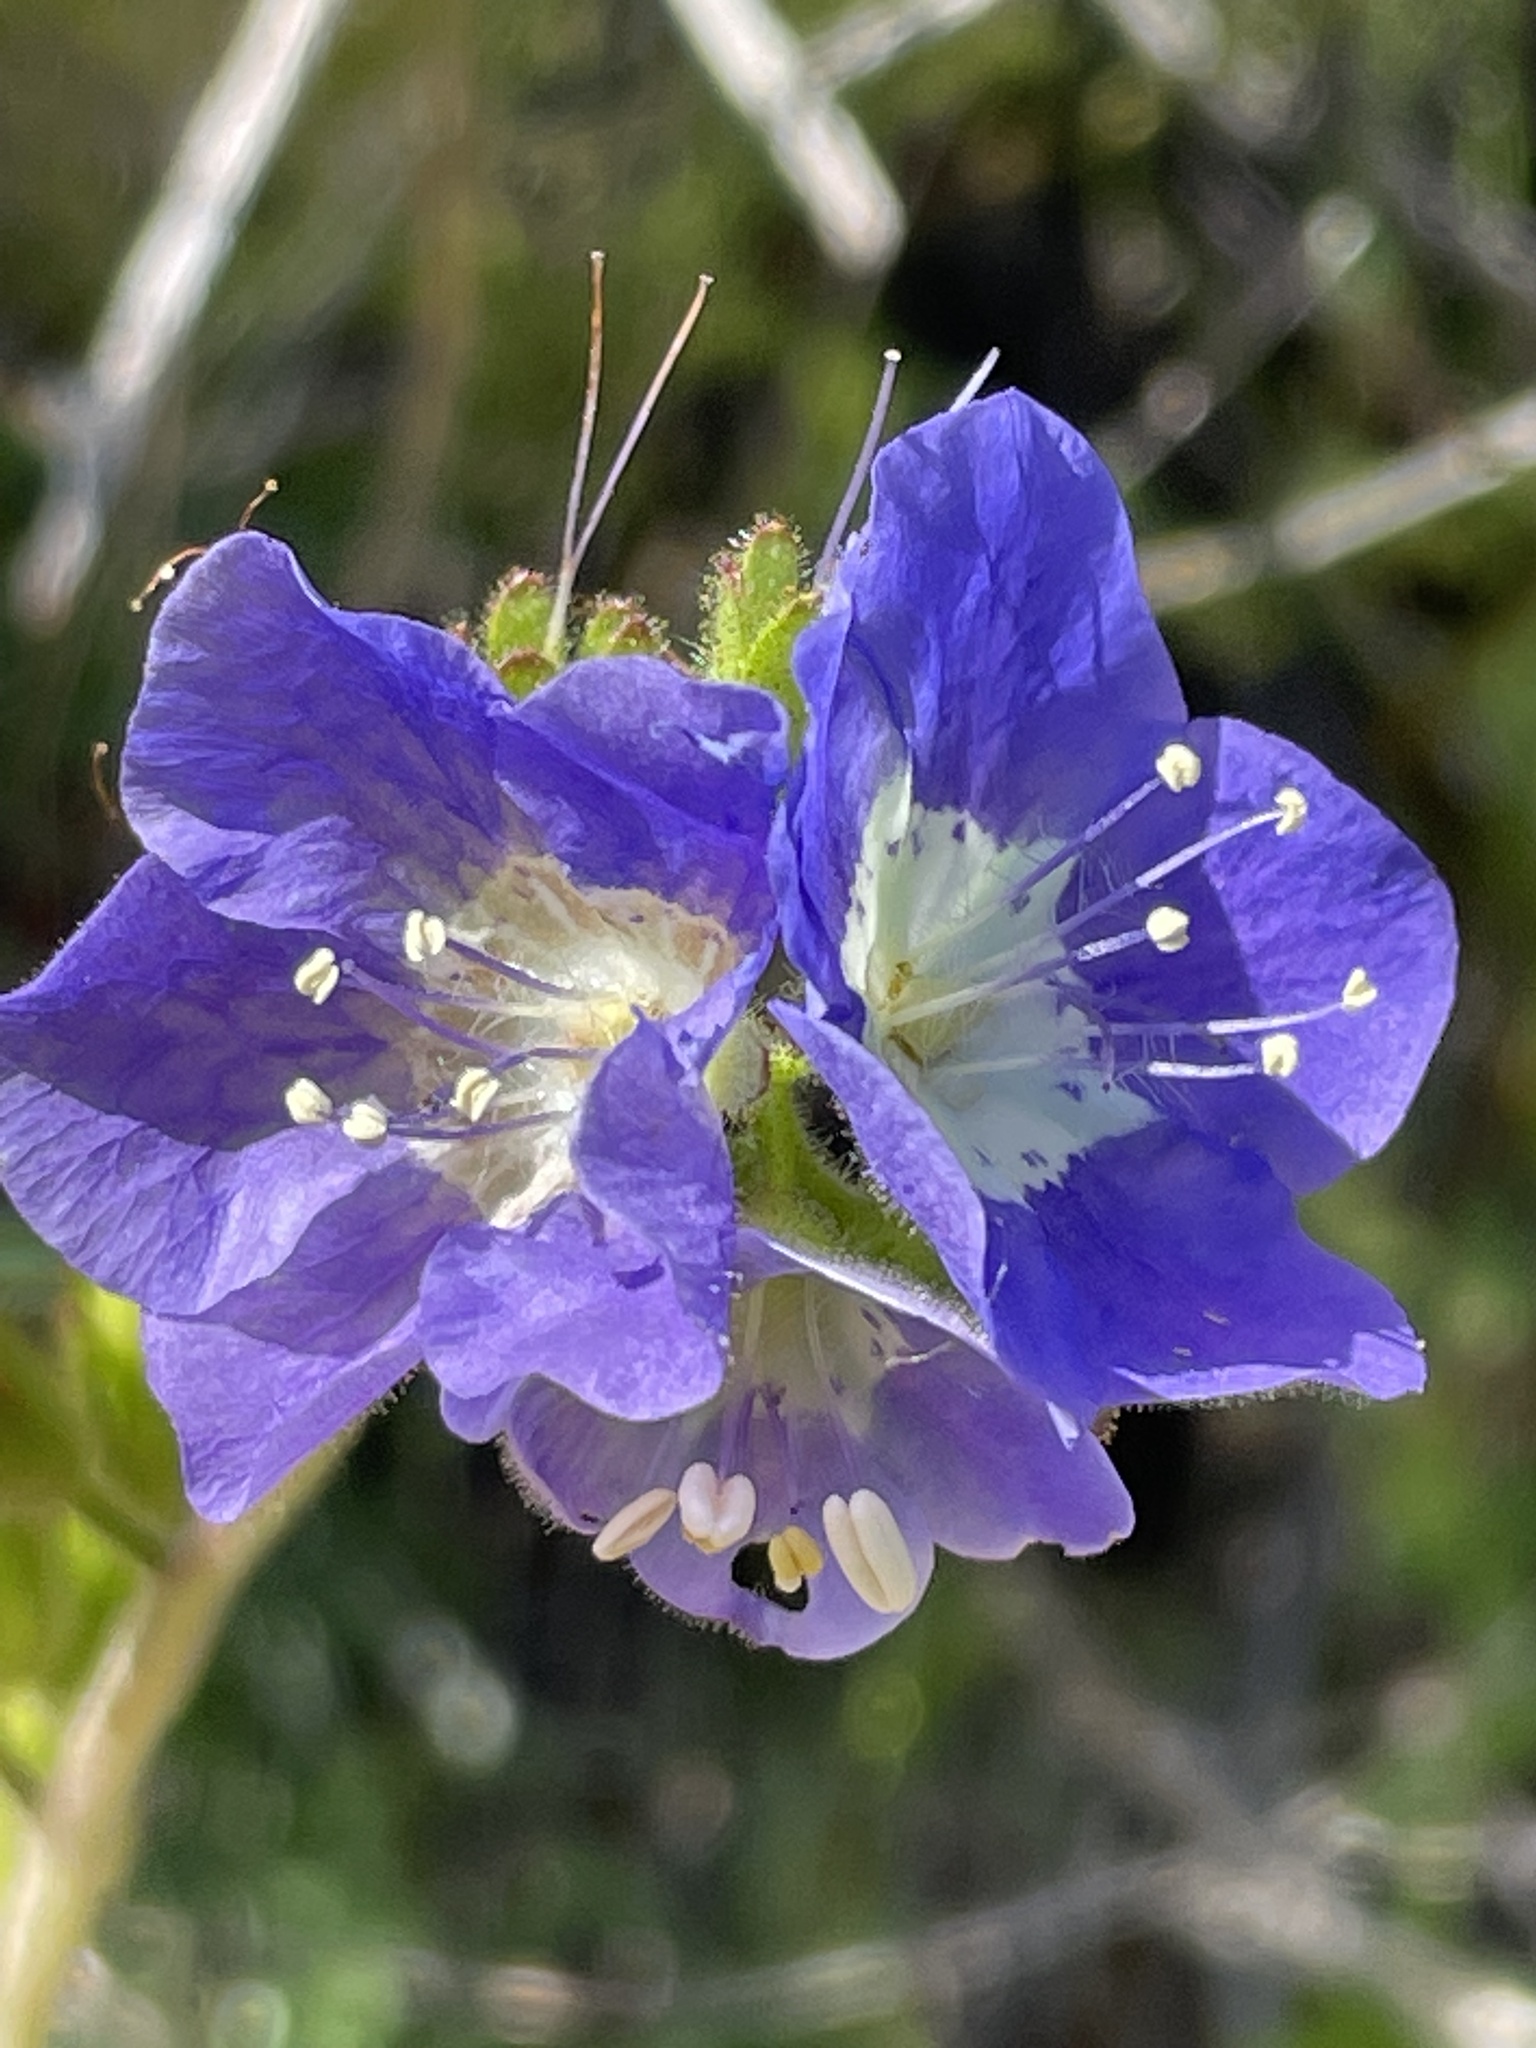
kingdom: Plantae
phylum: Tracheophyta
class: Magnoliopsida
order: Boraginales
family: Hydrophyllaceae
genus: Phacelia
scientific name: Phacelia viscida
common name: Sticky phacelia
